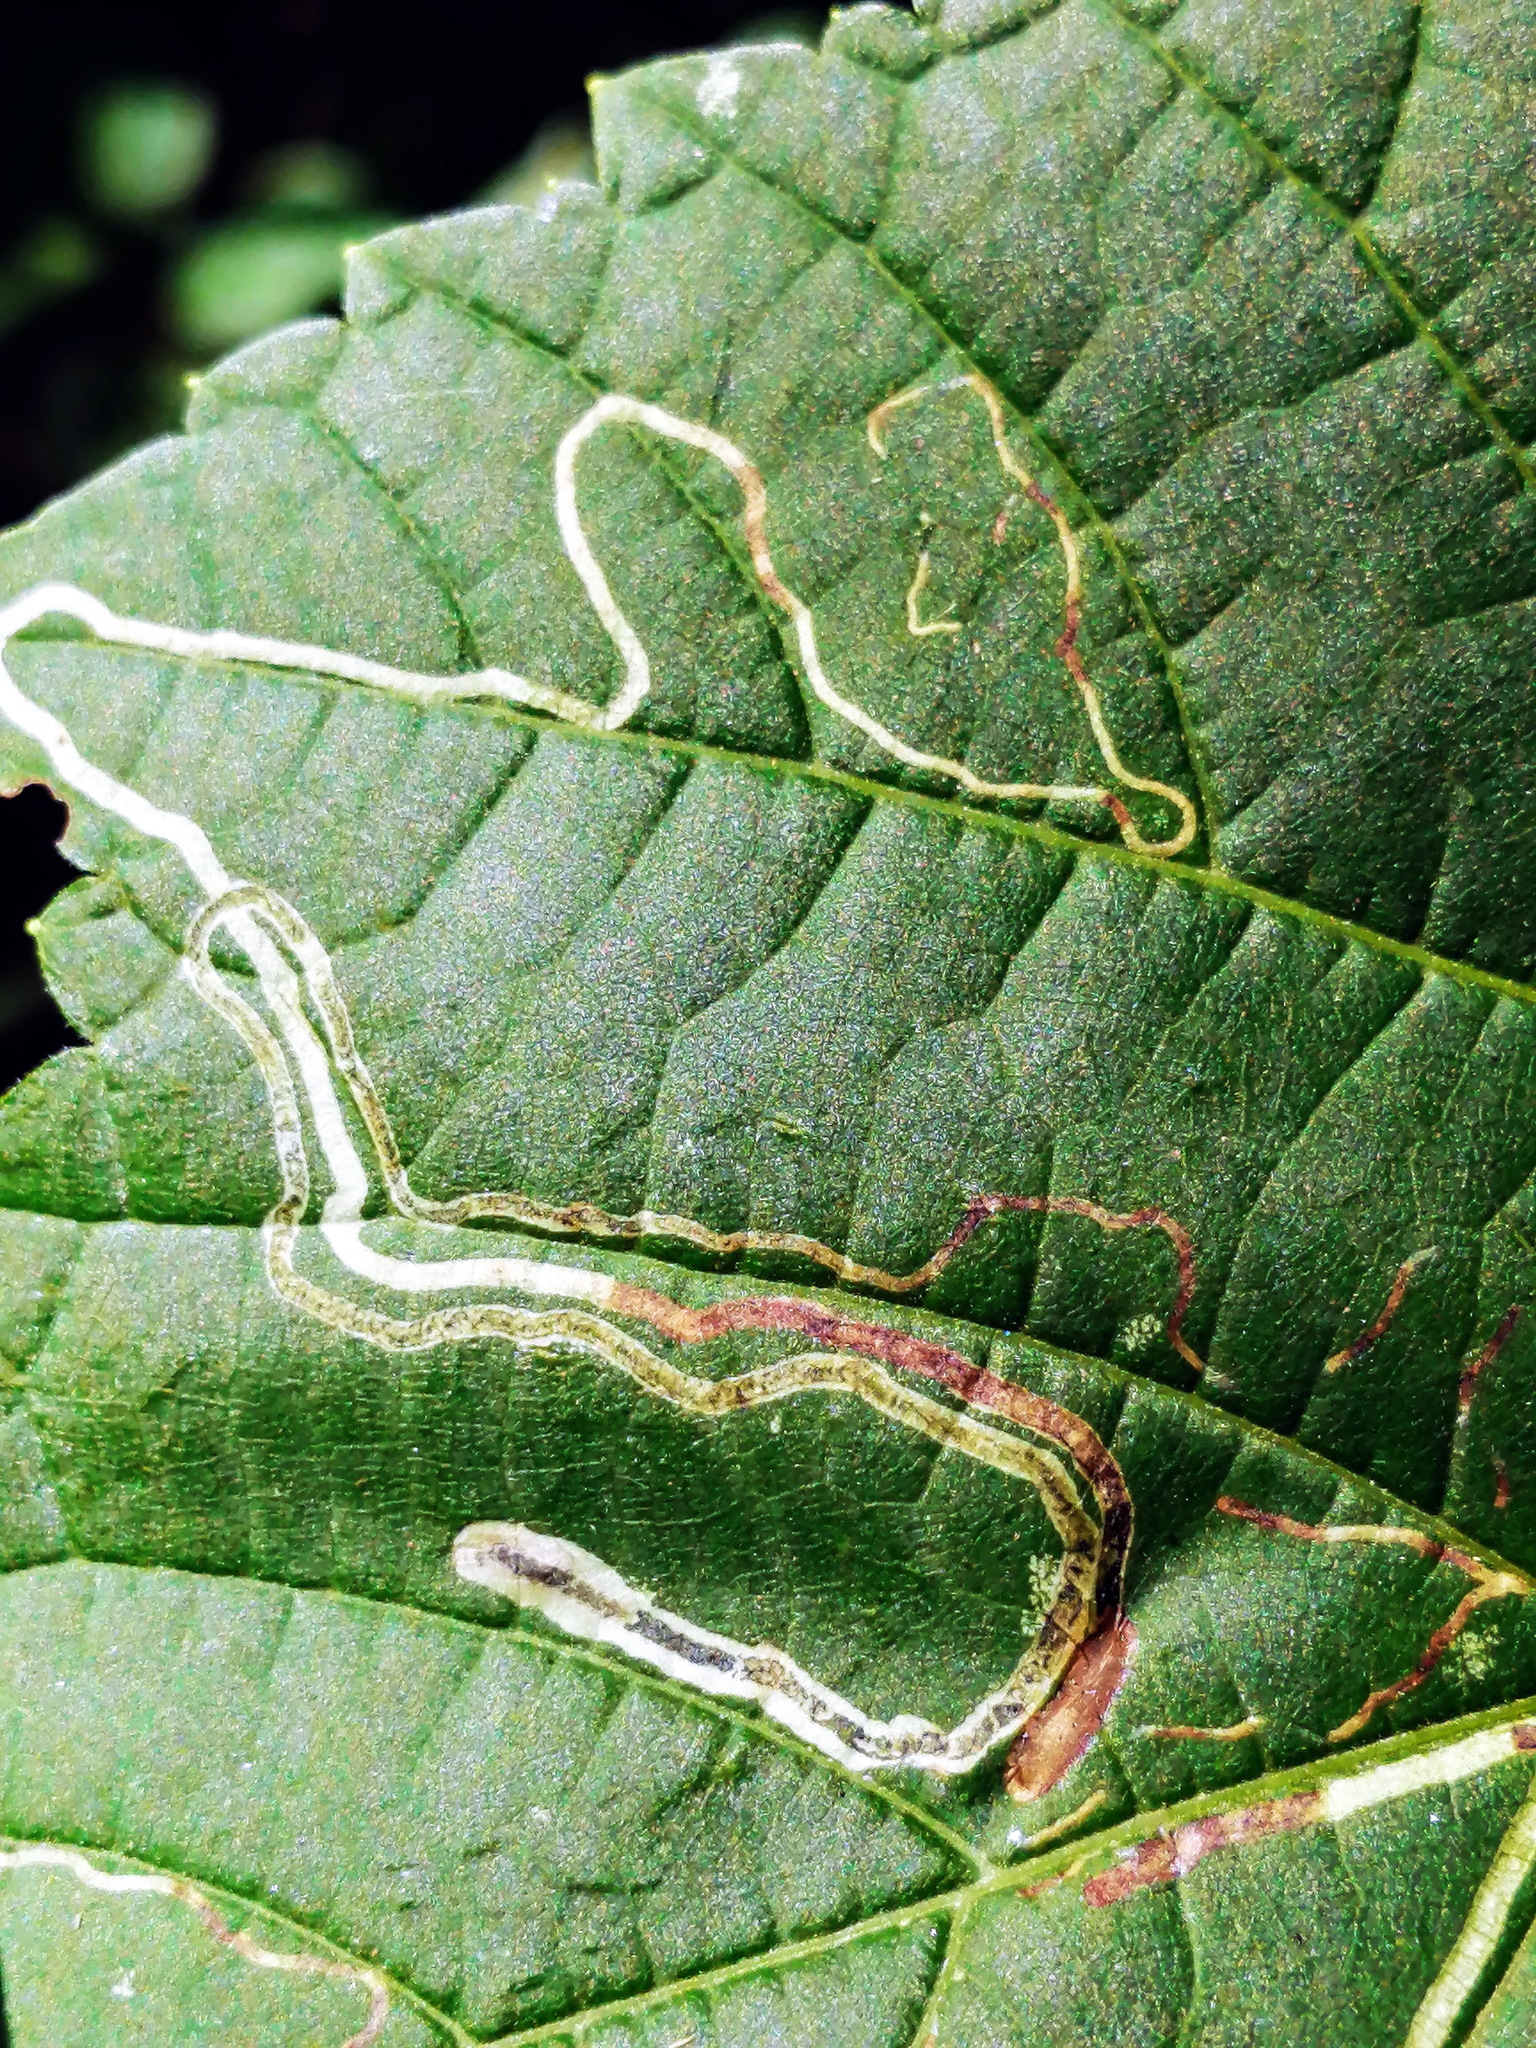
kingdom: Animalia
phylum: Arthropoda
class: Insecta
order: Lepidoptera
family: Gracillariidae
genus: Phyllocnistis
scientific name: Phyllocnistis vitifoliella
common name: Grape leaf-miner moth
